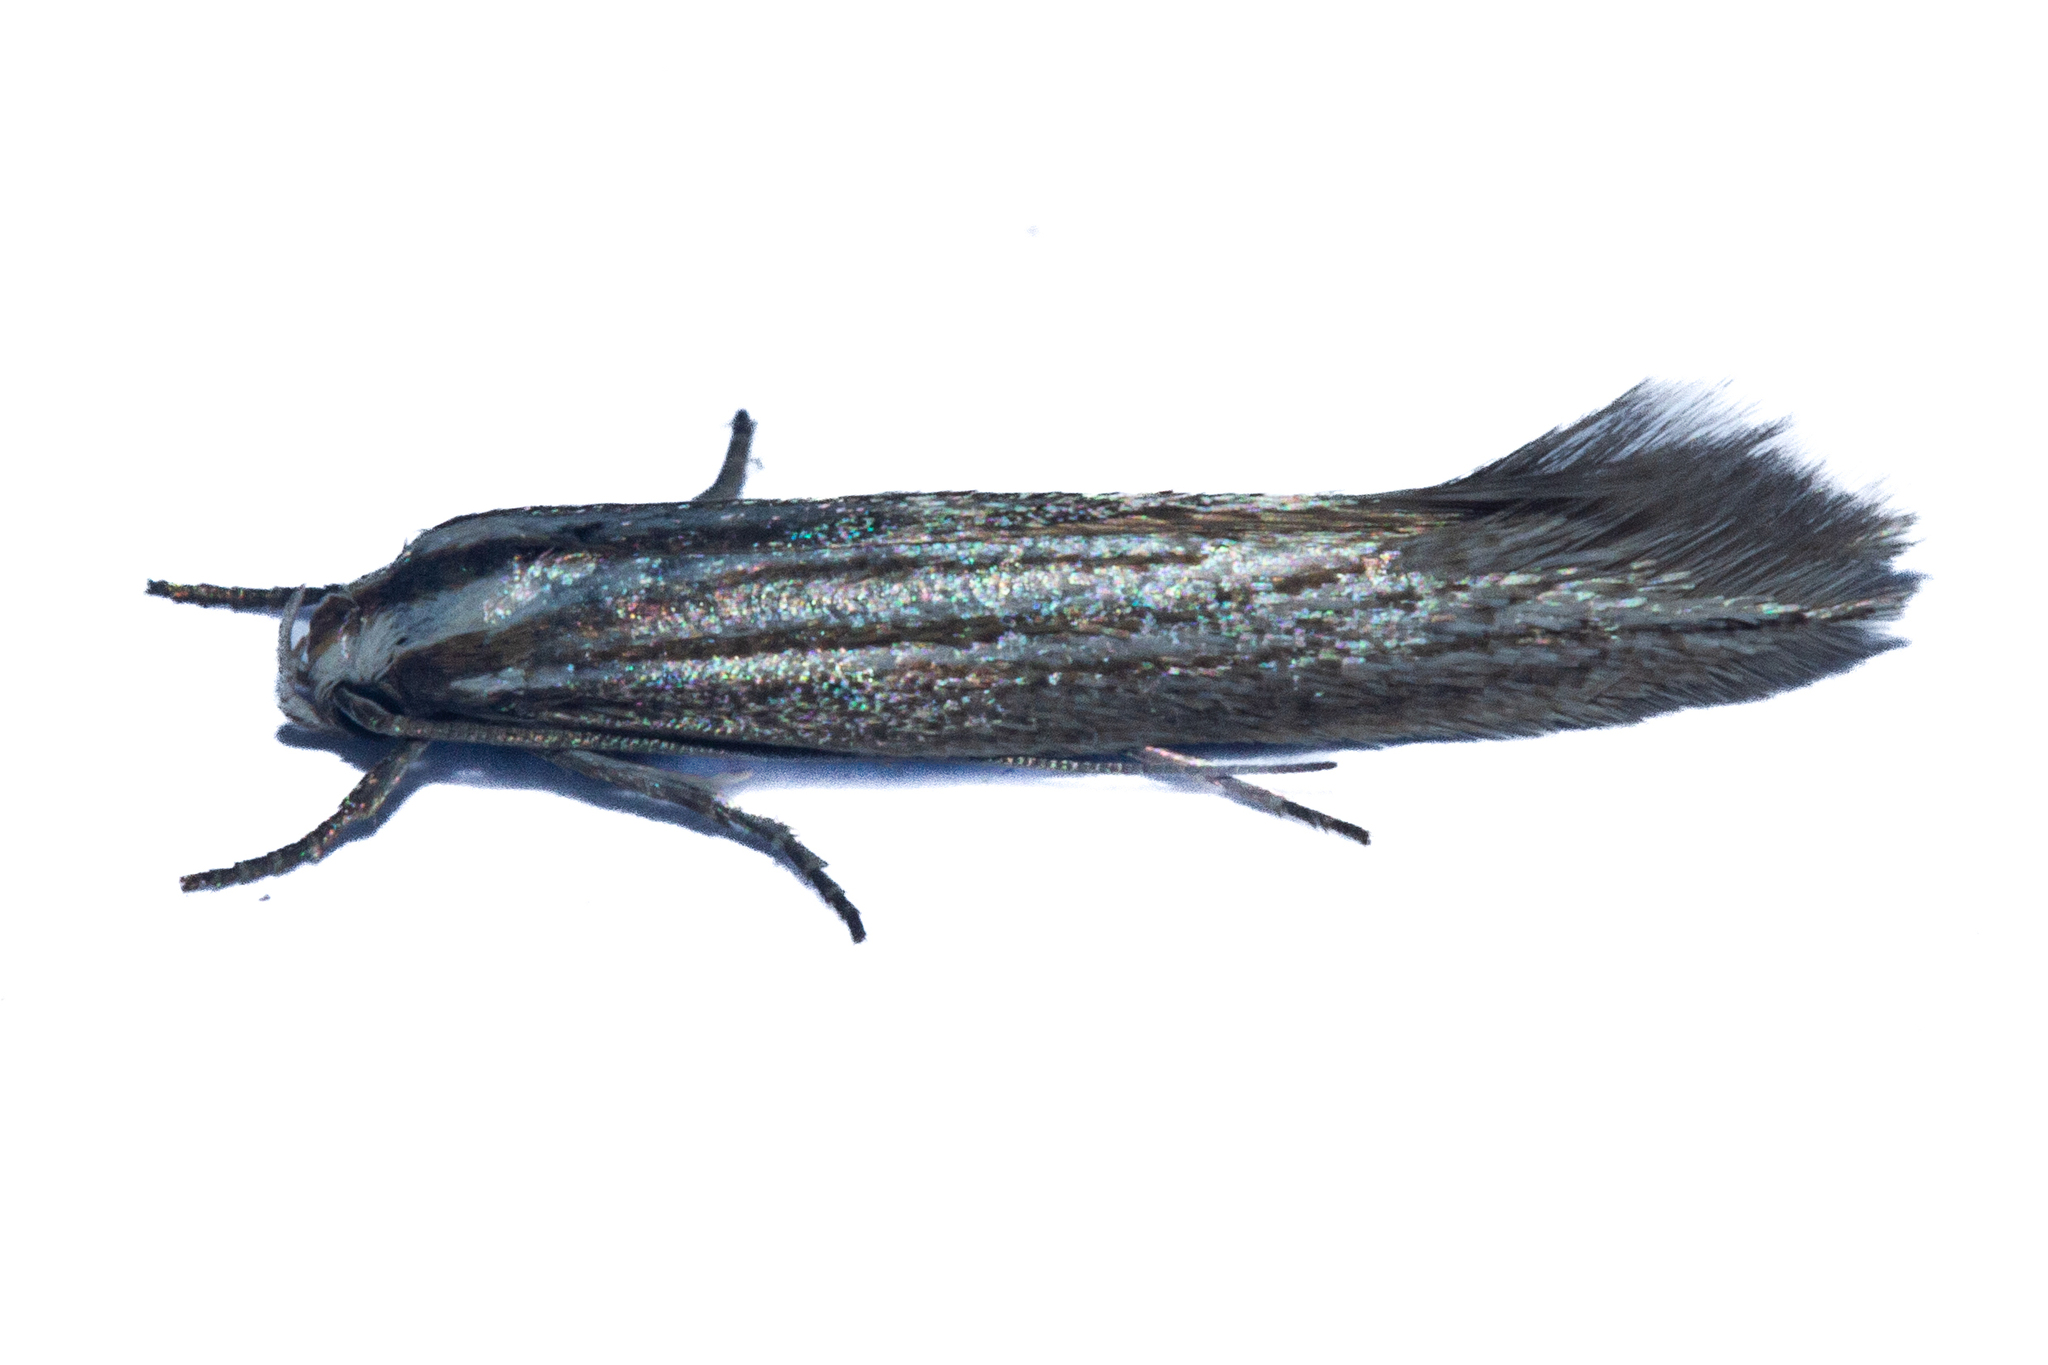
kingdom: Animalia
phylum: Arthropoda
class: Insecta
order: Lepidoptera
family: Elachistidae
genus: Elachista
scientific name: Elachista thallophora
